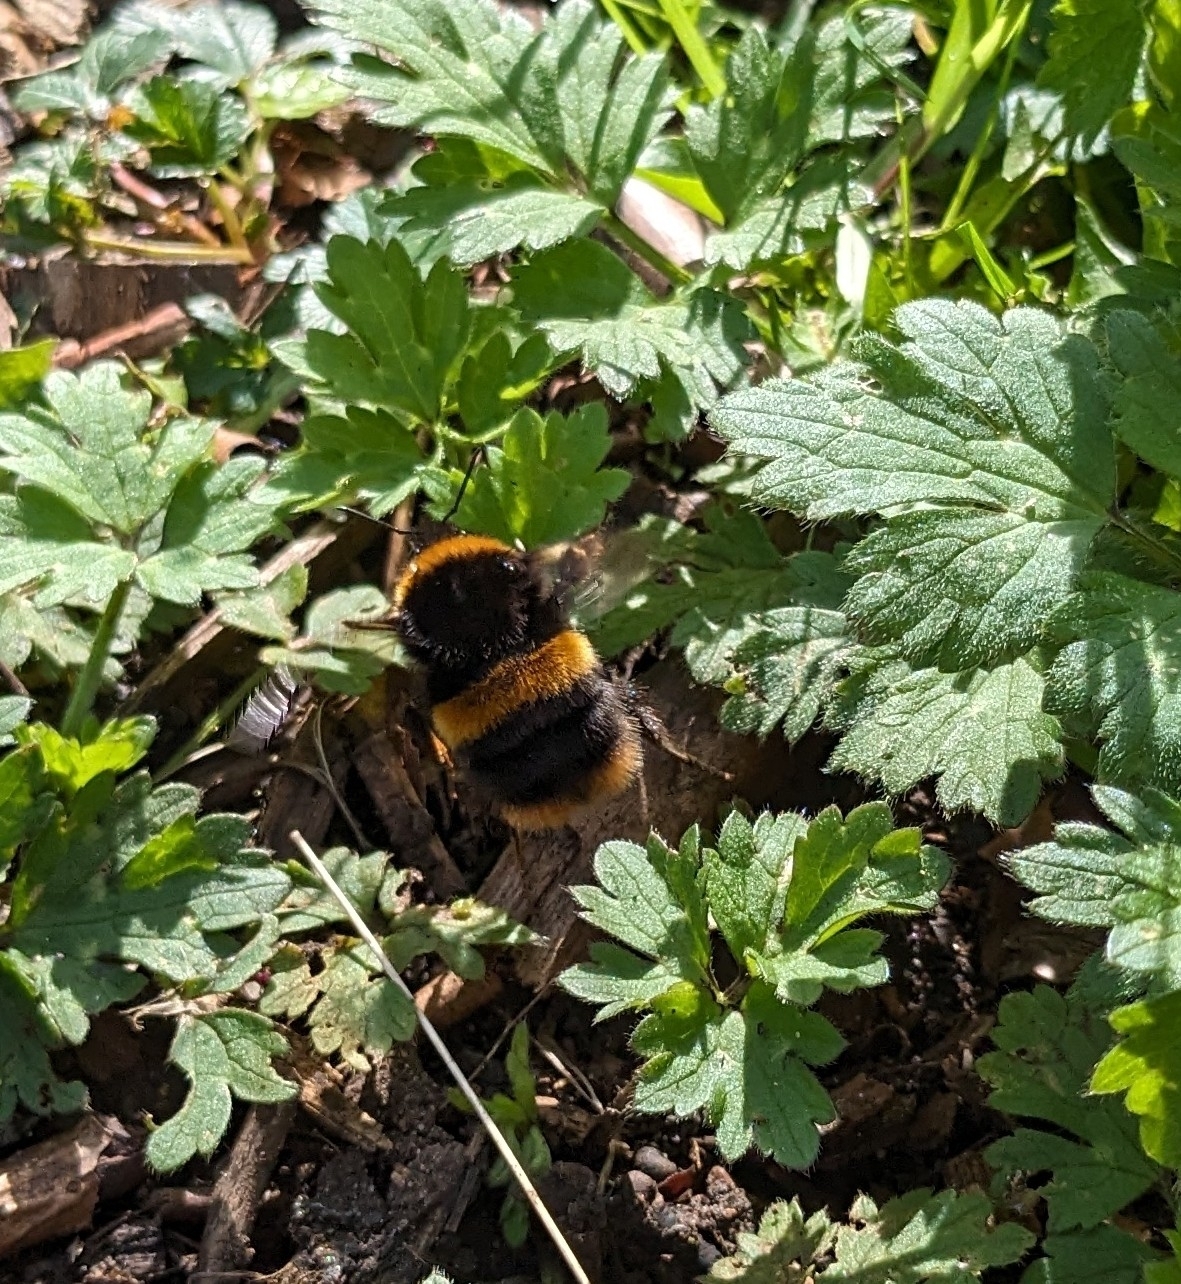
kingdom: Animalia
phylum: Arthropoda
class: Insecta
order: Hymenoptera
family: Apidae
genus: Bombus
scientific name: Bombus terrestris
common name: Buff-tailed bumblebee
